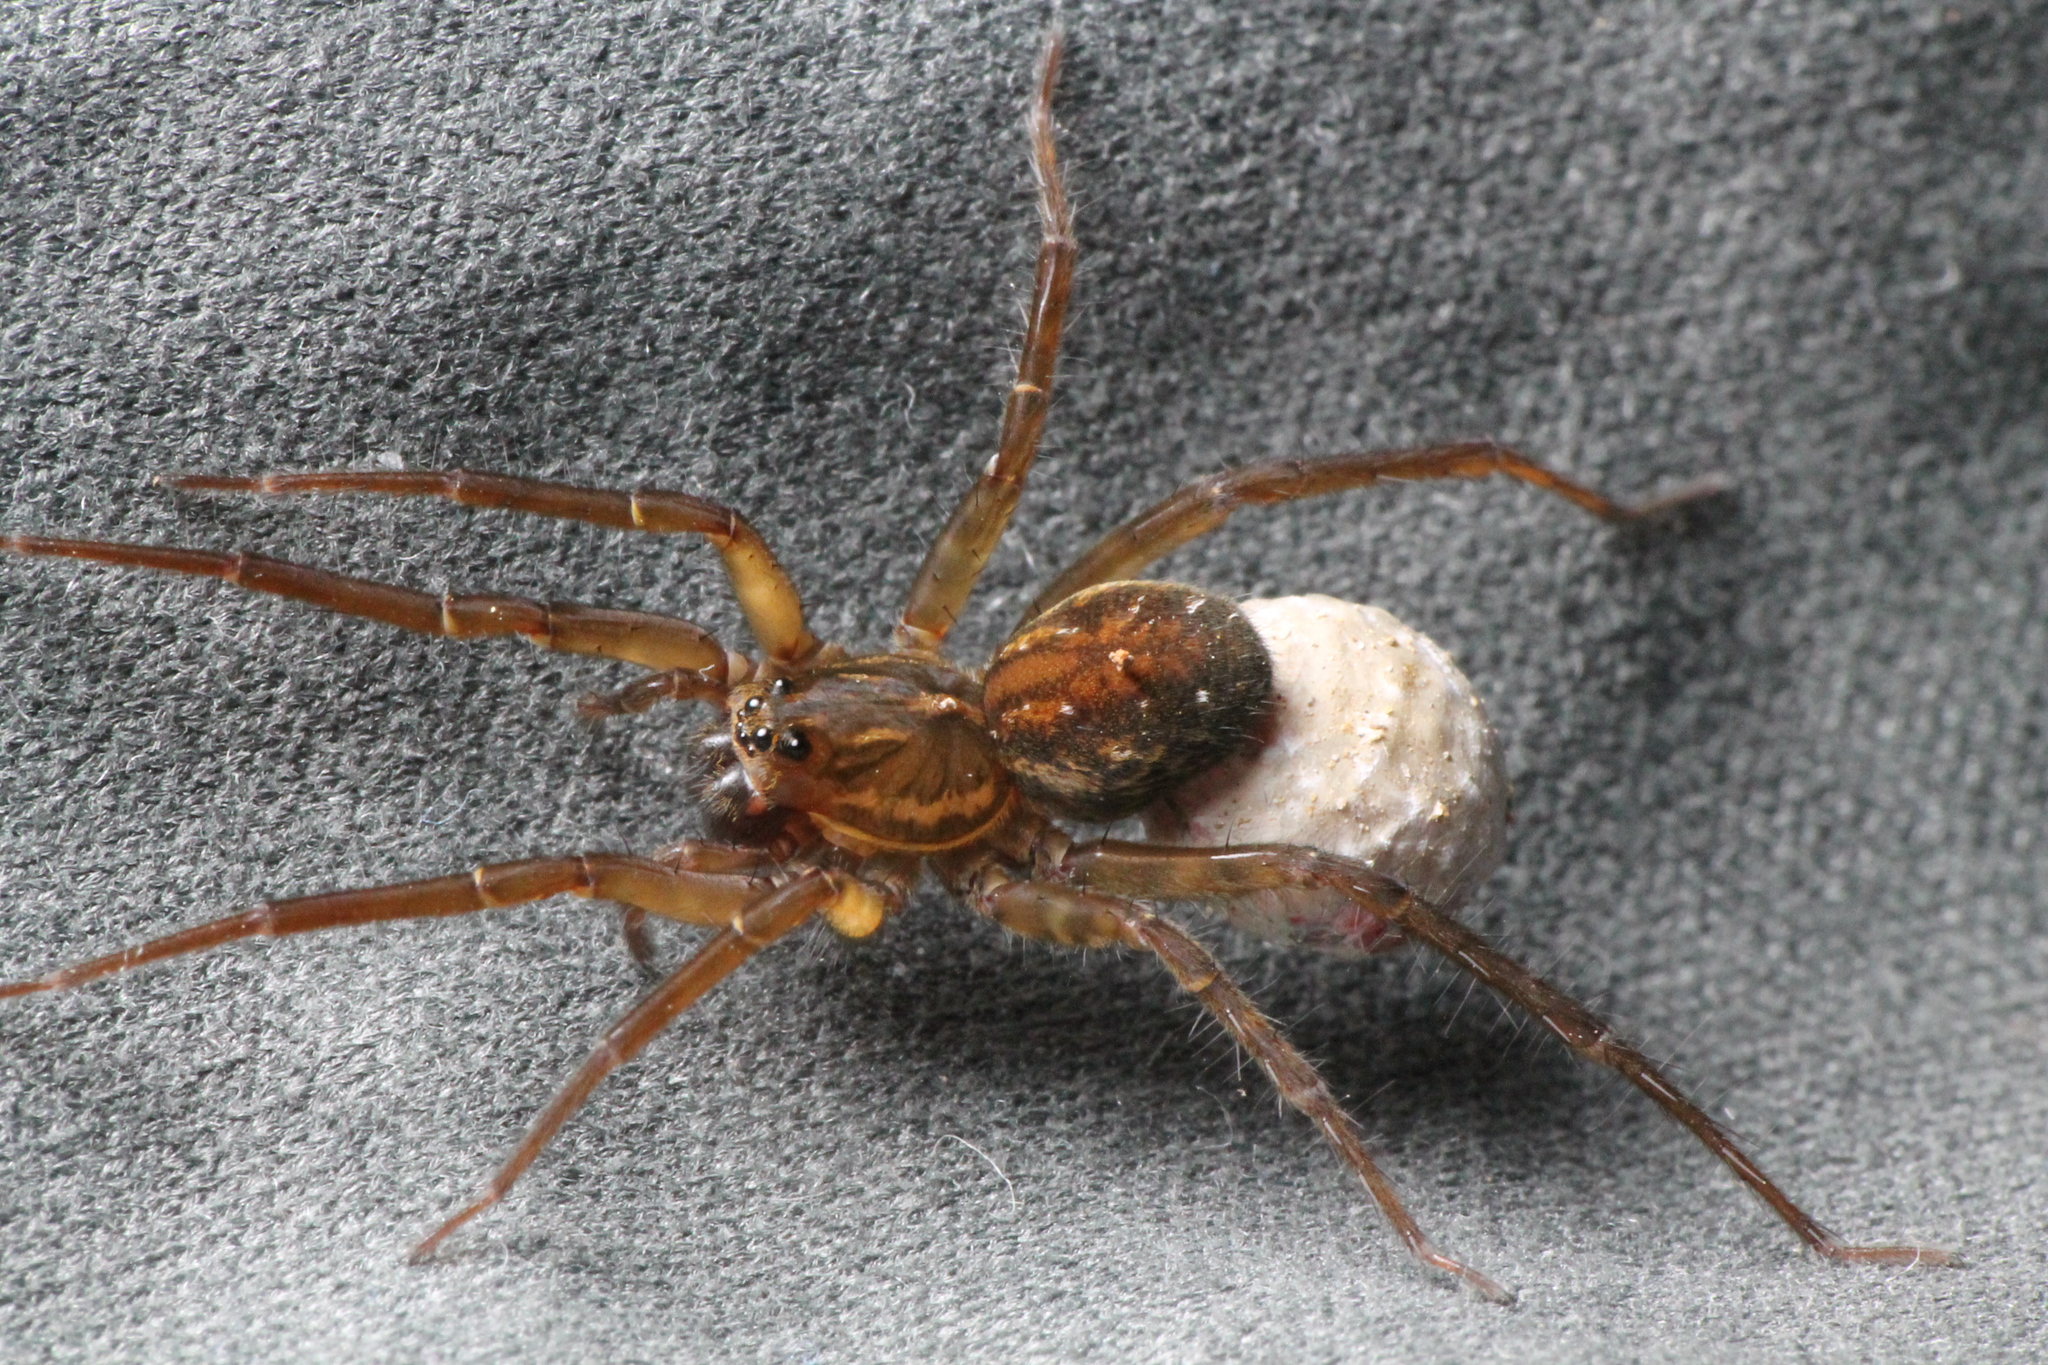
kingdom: Animalia
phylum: Arthropoda
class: Arachnida
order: Araneae
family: Lycosidae
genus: Allotrochosina
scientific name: Allotrochosina schauinslandi
